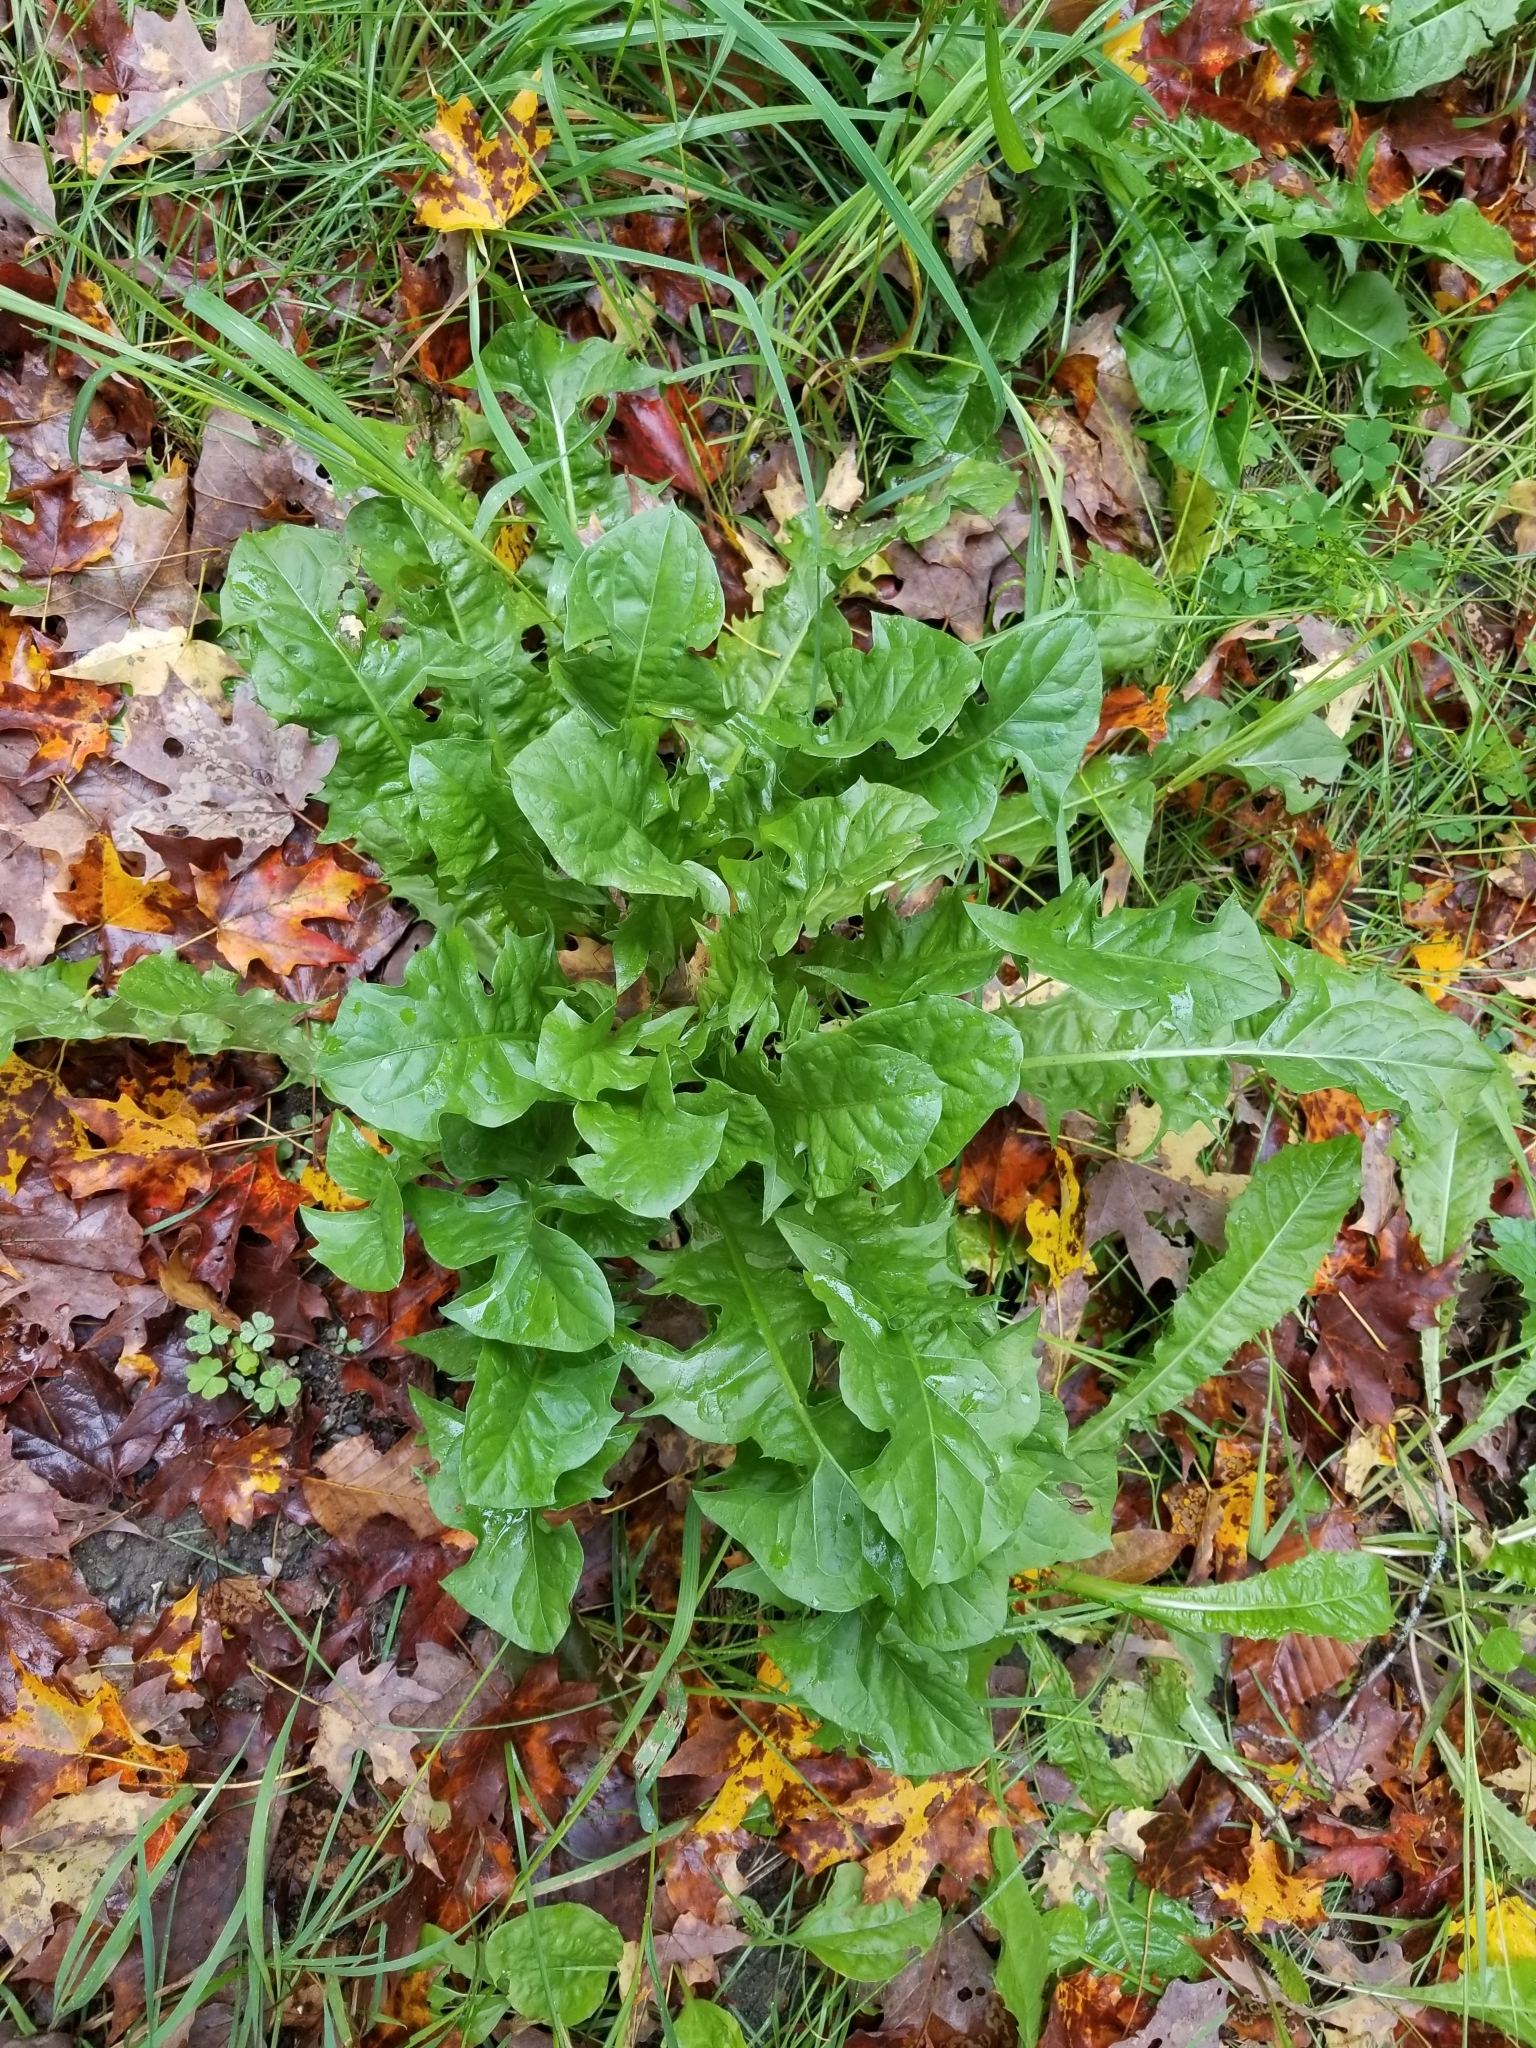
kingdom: Plantae
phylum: Tracheophyta
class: Magnoliopsida
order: Asterales
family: Asteraceae
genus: Taraxacum
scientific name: Taraxacum officinale
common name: Common dandelion
